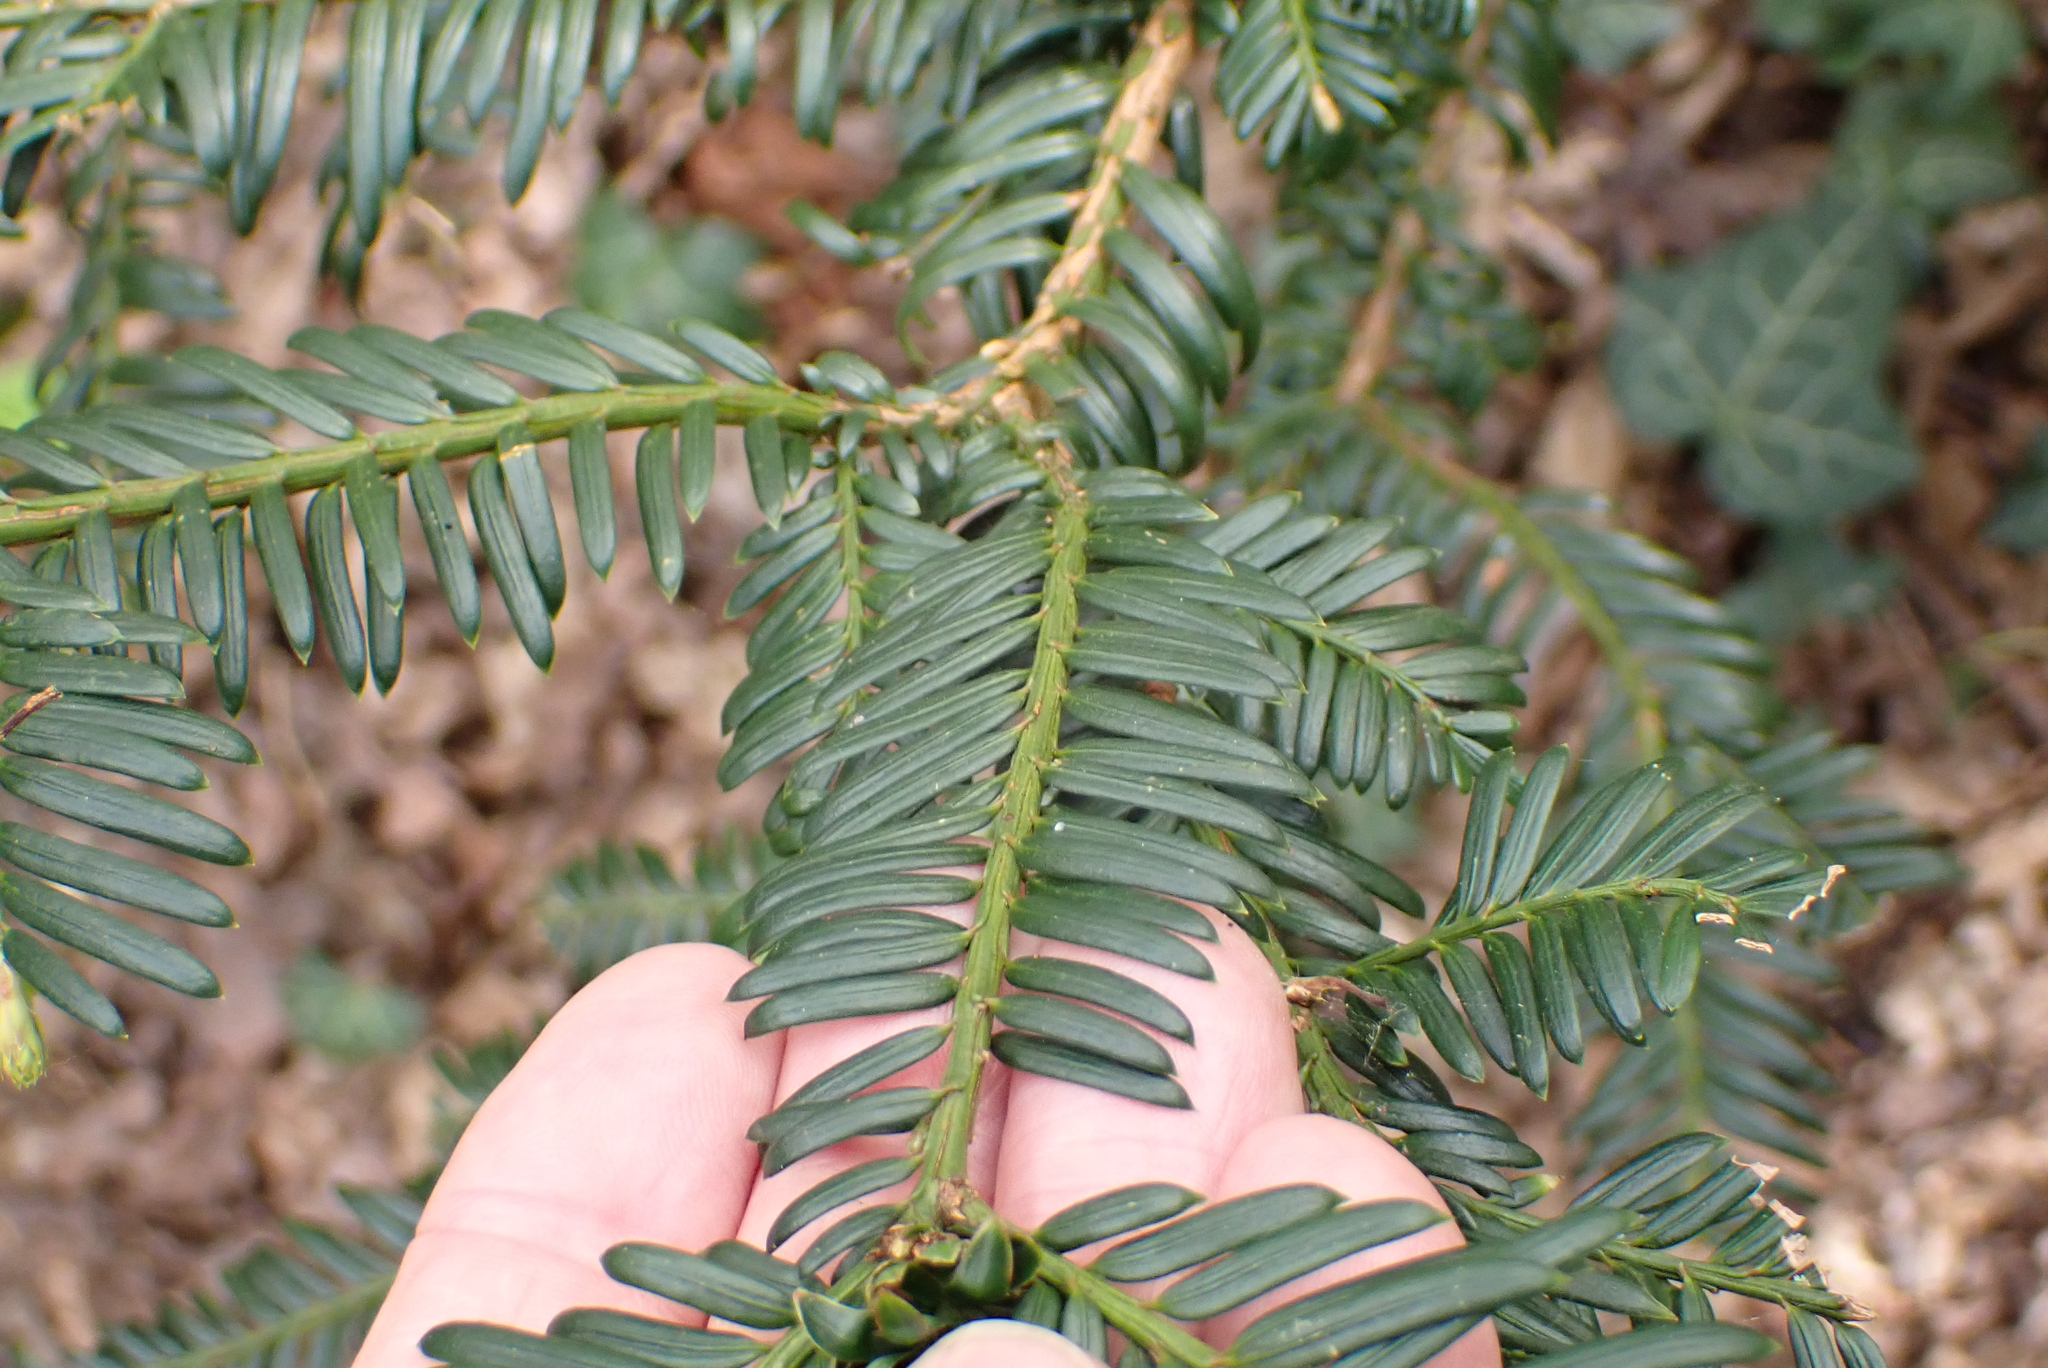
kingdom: Plantae
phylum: Tracheophyta
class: Pinopsida
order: Pinales
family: Taxaceae
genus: Taxus
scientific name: Taxus baccata
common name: Yew
